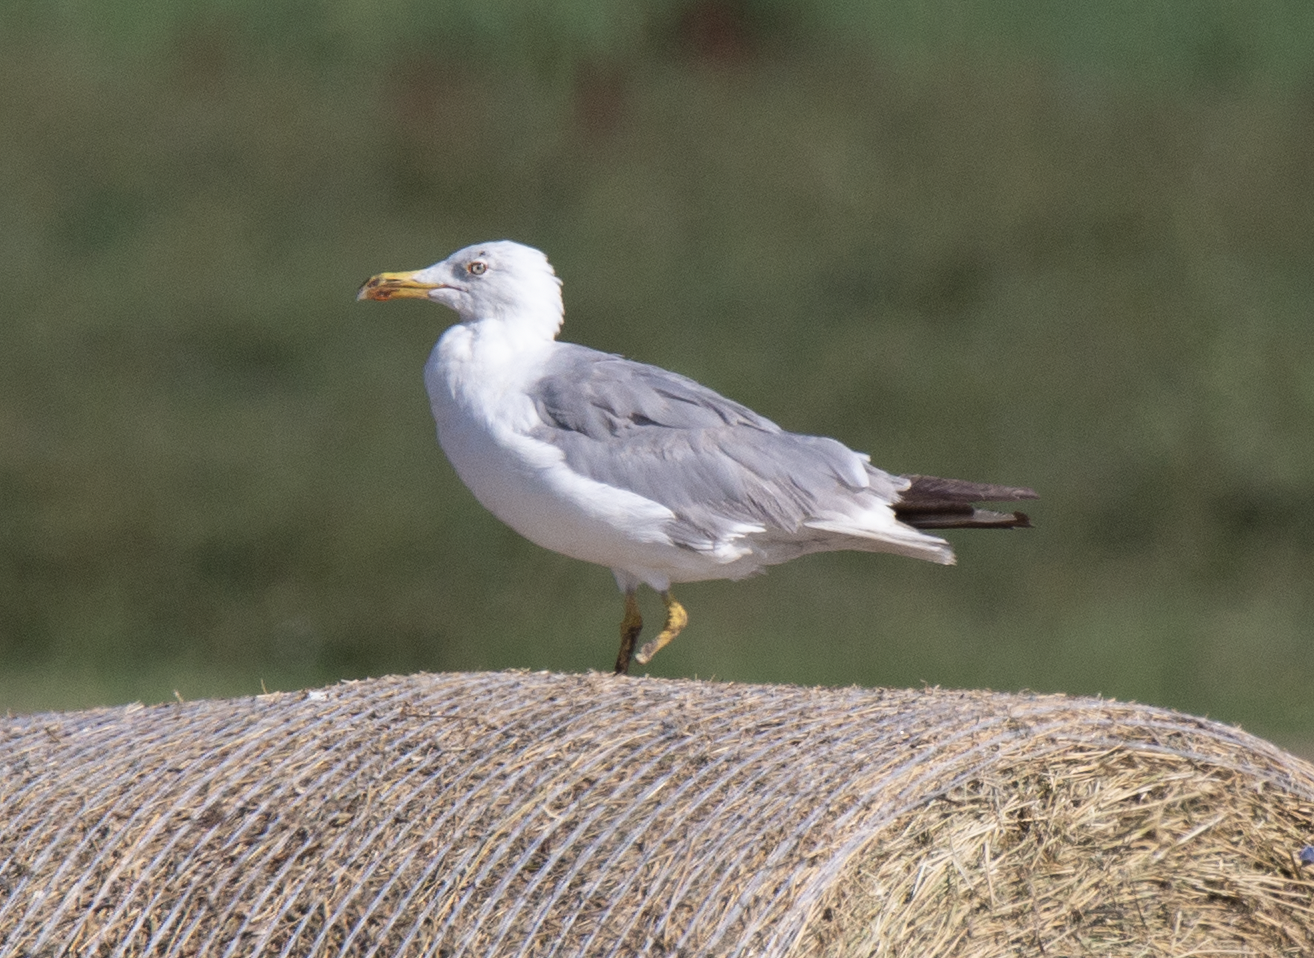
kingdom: Animalia
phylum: Chordata
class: Aves
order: Charadriiformes
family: Laridae
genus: Larus
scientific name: Larus michahellis
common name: Yellow-legged gull
